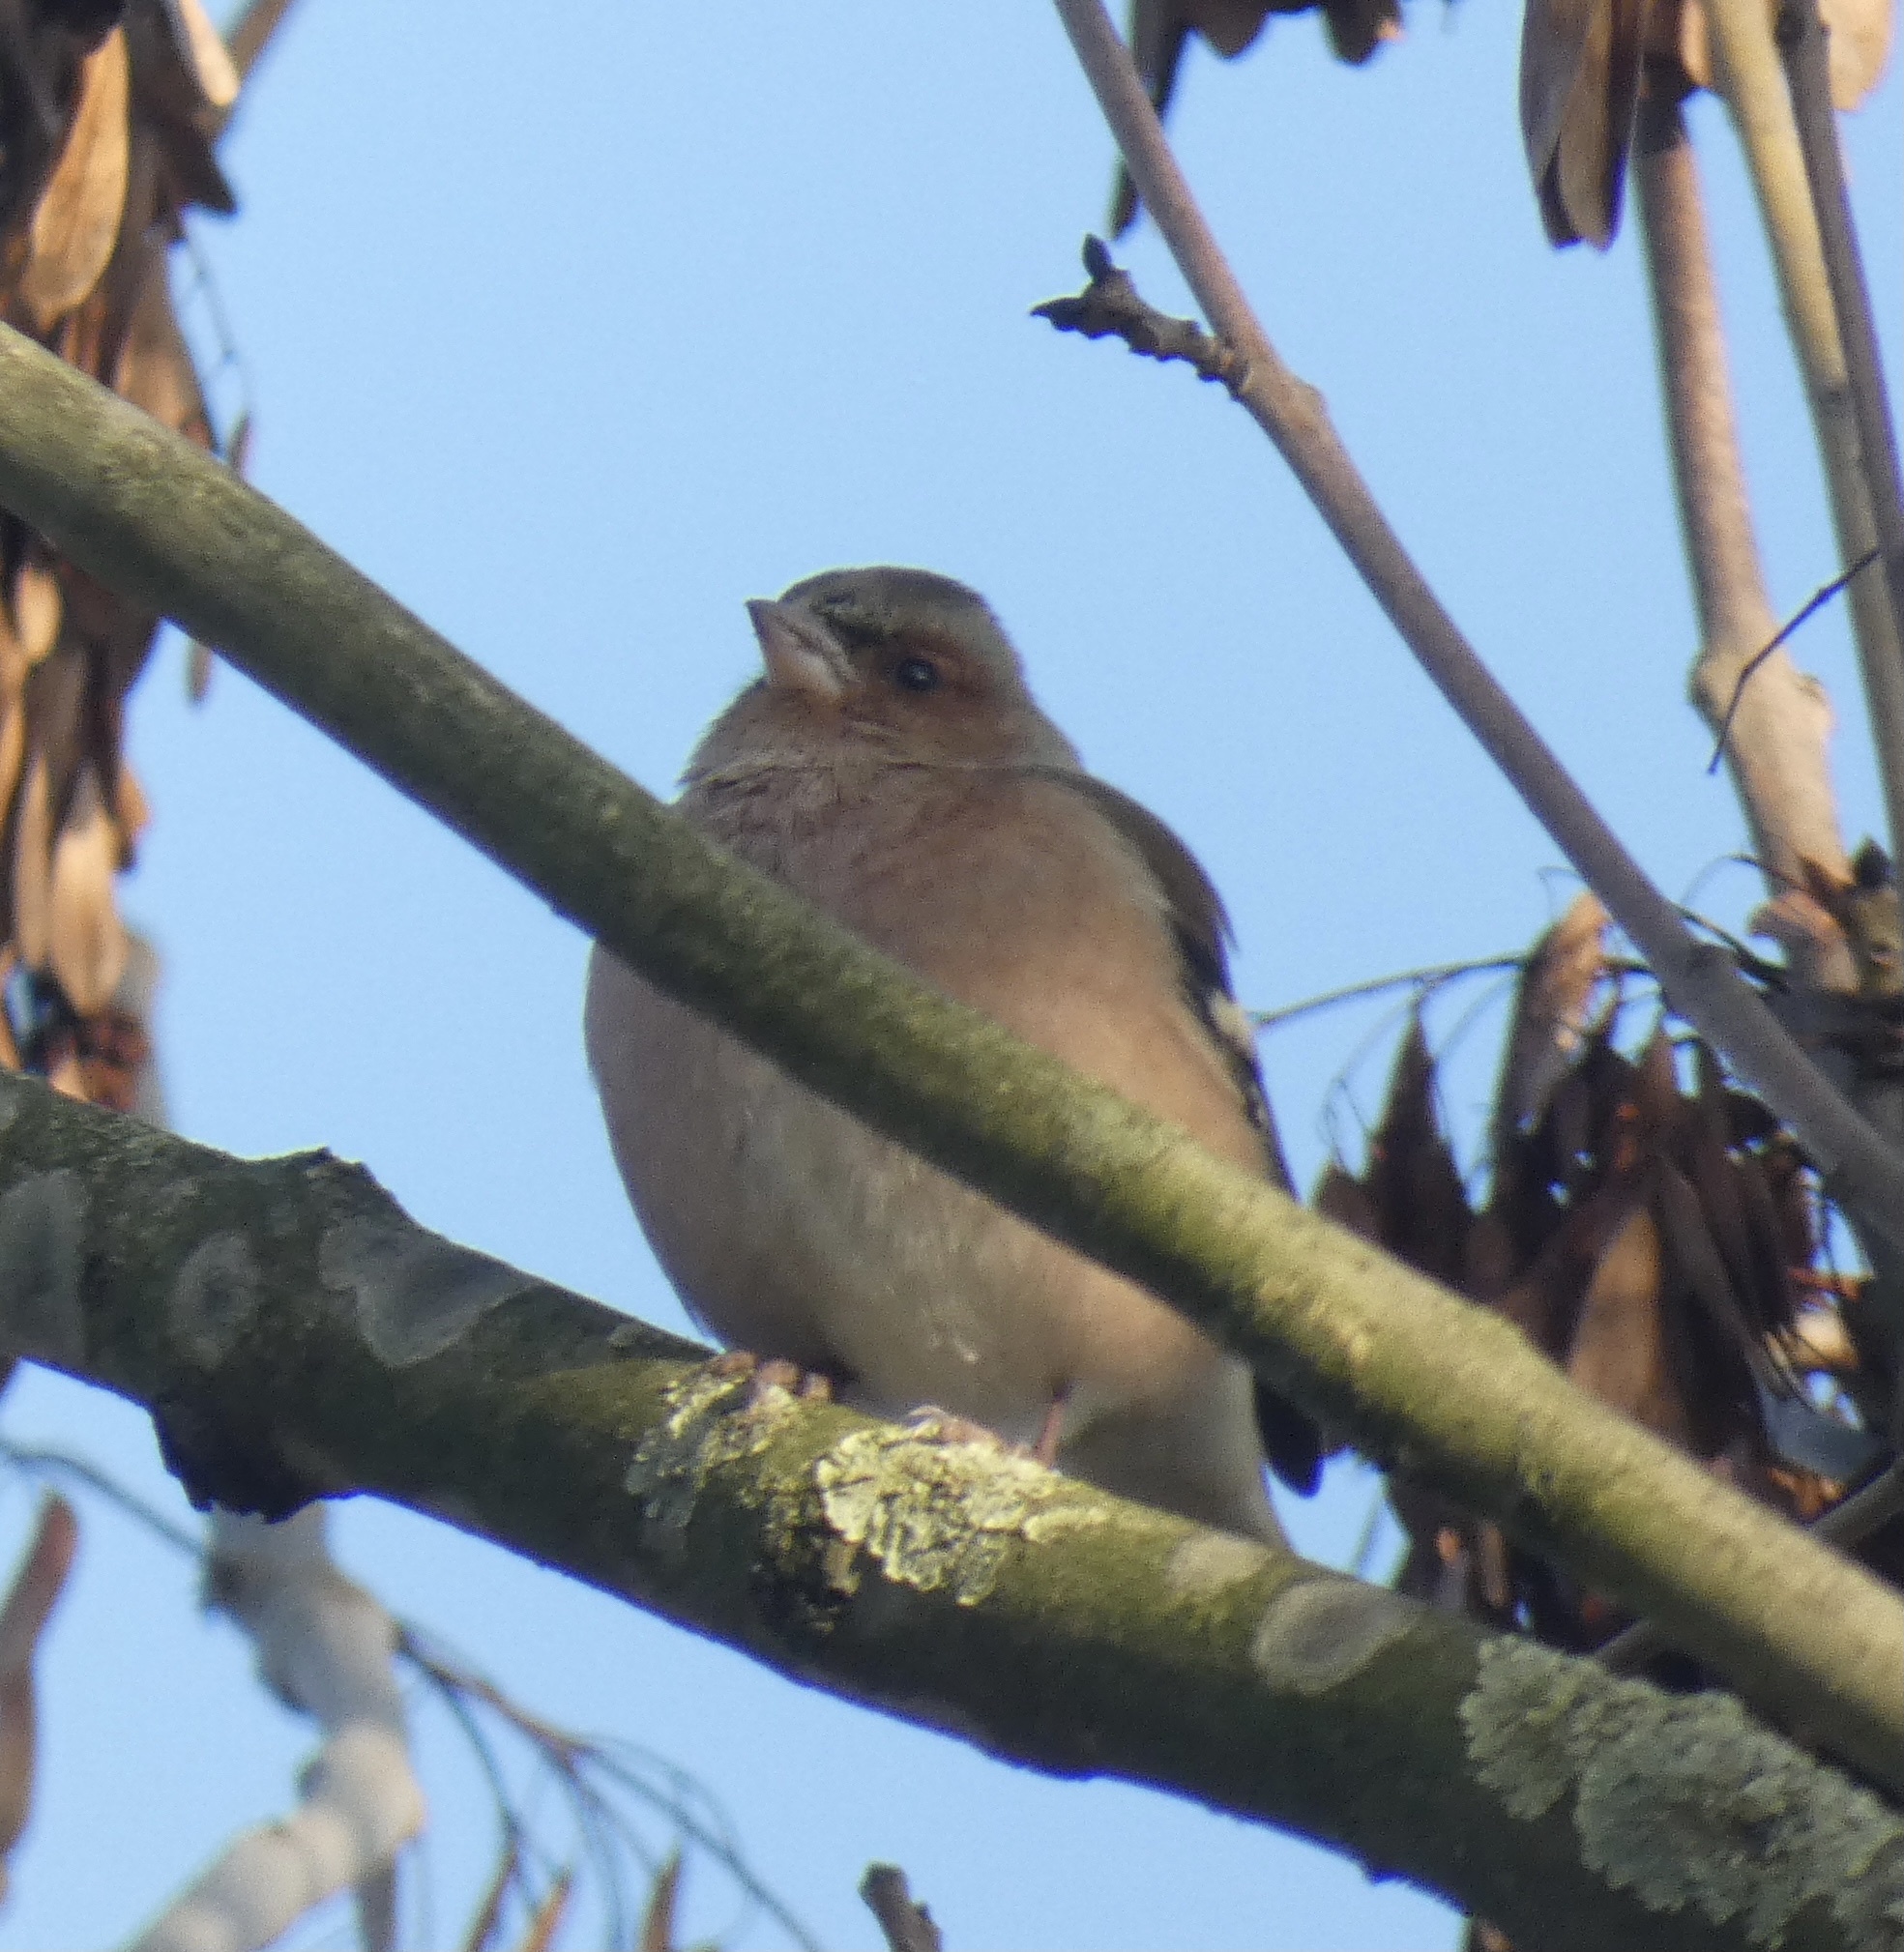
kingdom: Animalia
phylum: Chordata
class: Aves
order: Passeriformes
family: Fringillidae
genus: Fringilla
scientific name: Fringilla coelebs
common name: Common chaffinch
